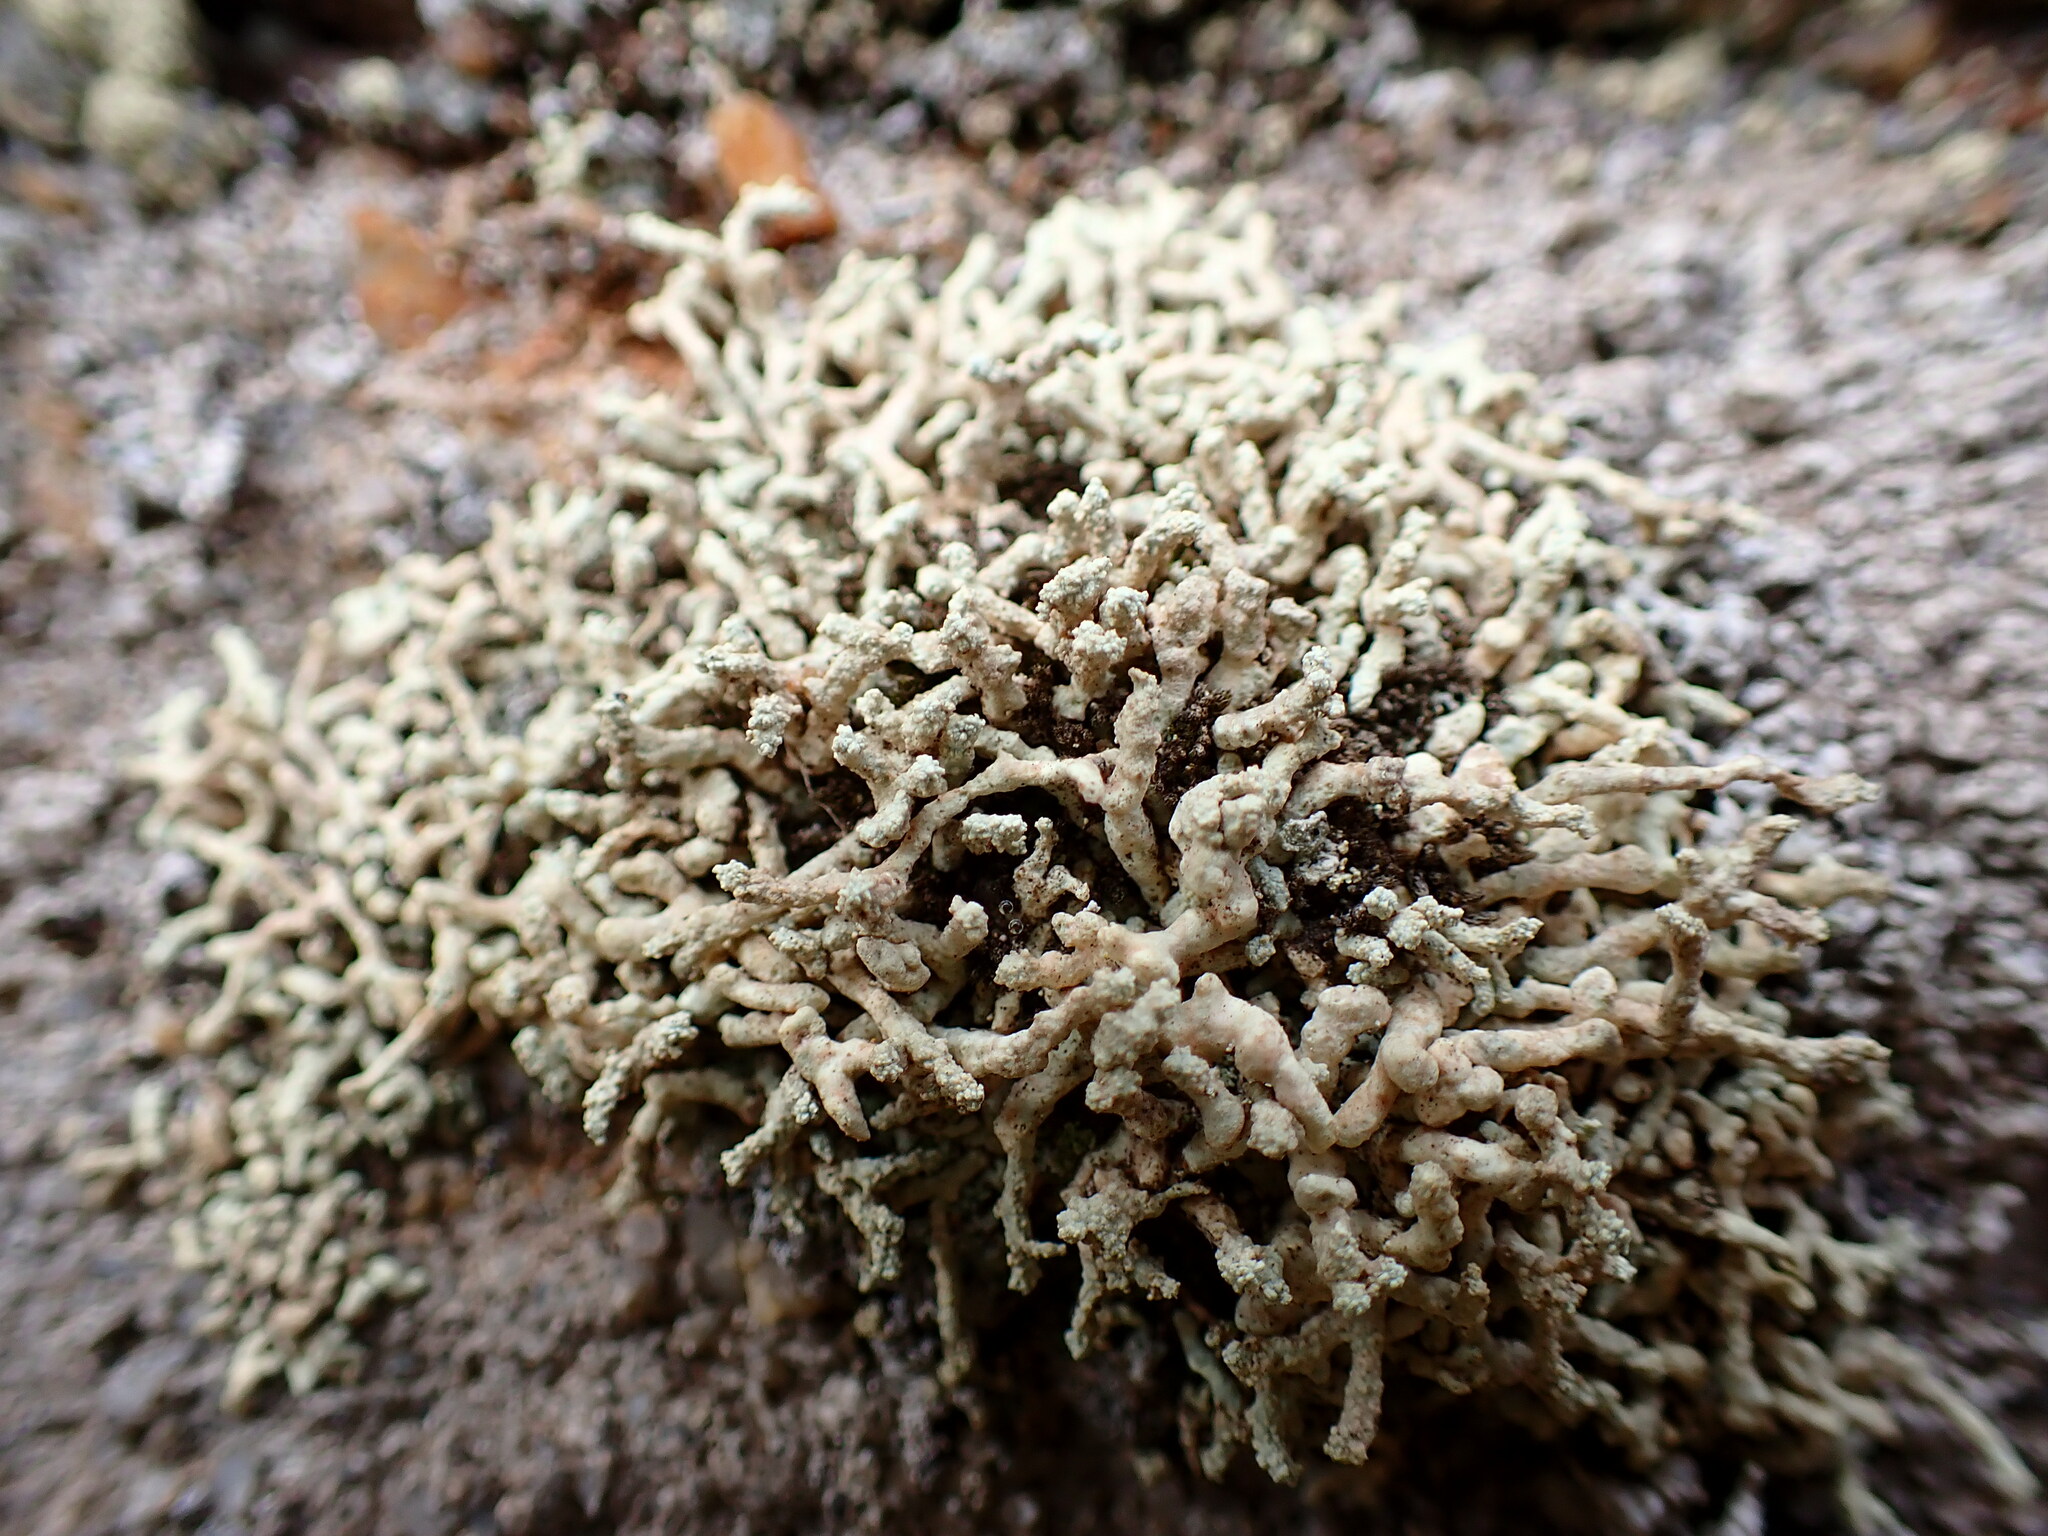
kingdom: Fungi
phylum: Ascomycota
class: Lecanoromycetes
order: Teloschistales
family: Teloschistaceae
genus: Polycauliona
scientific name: Polycauliona phryganitis
